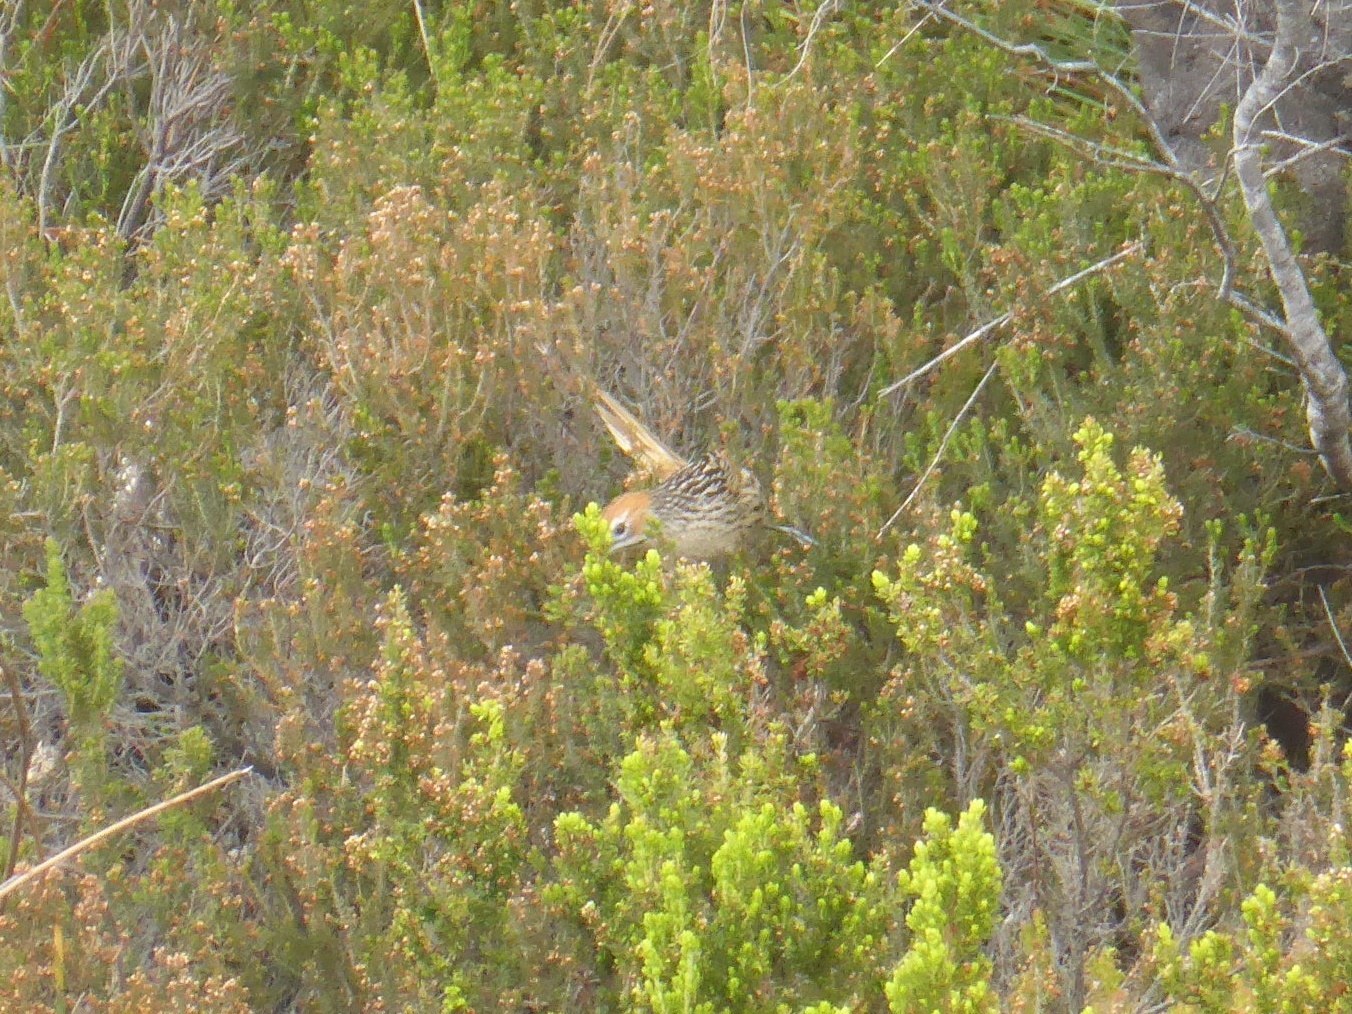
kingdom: Animalia
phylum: Chordata
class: Aves
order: Passeriformes
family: Macrosphenidae
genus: Sphenoeacus
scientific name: Sphenoeacus afer
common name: Cape grassbird
